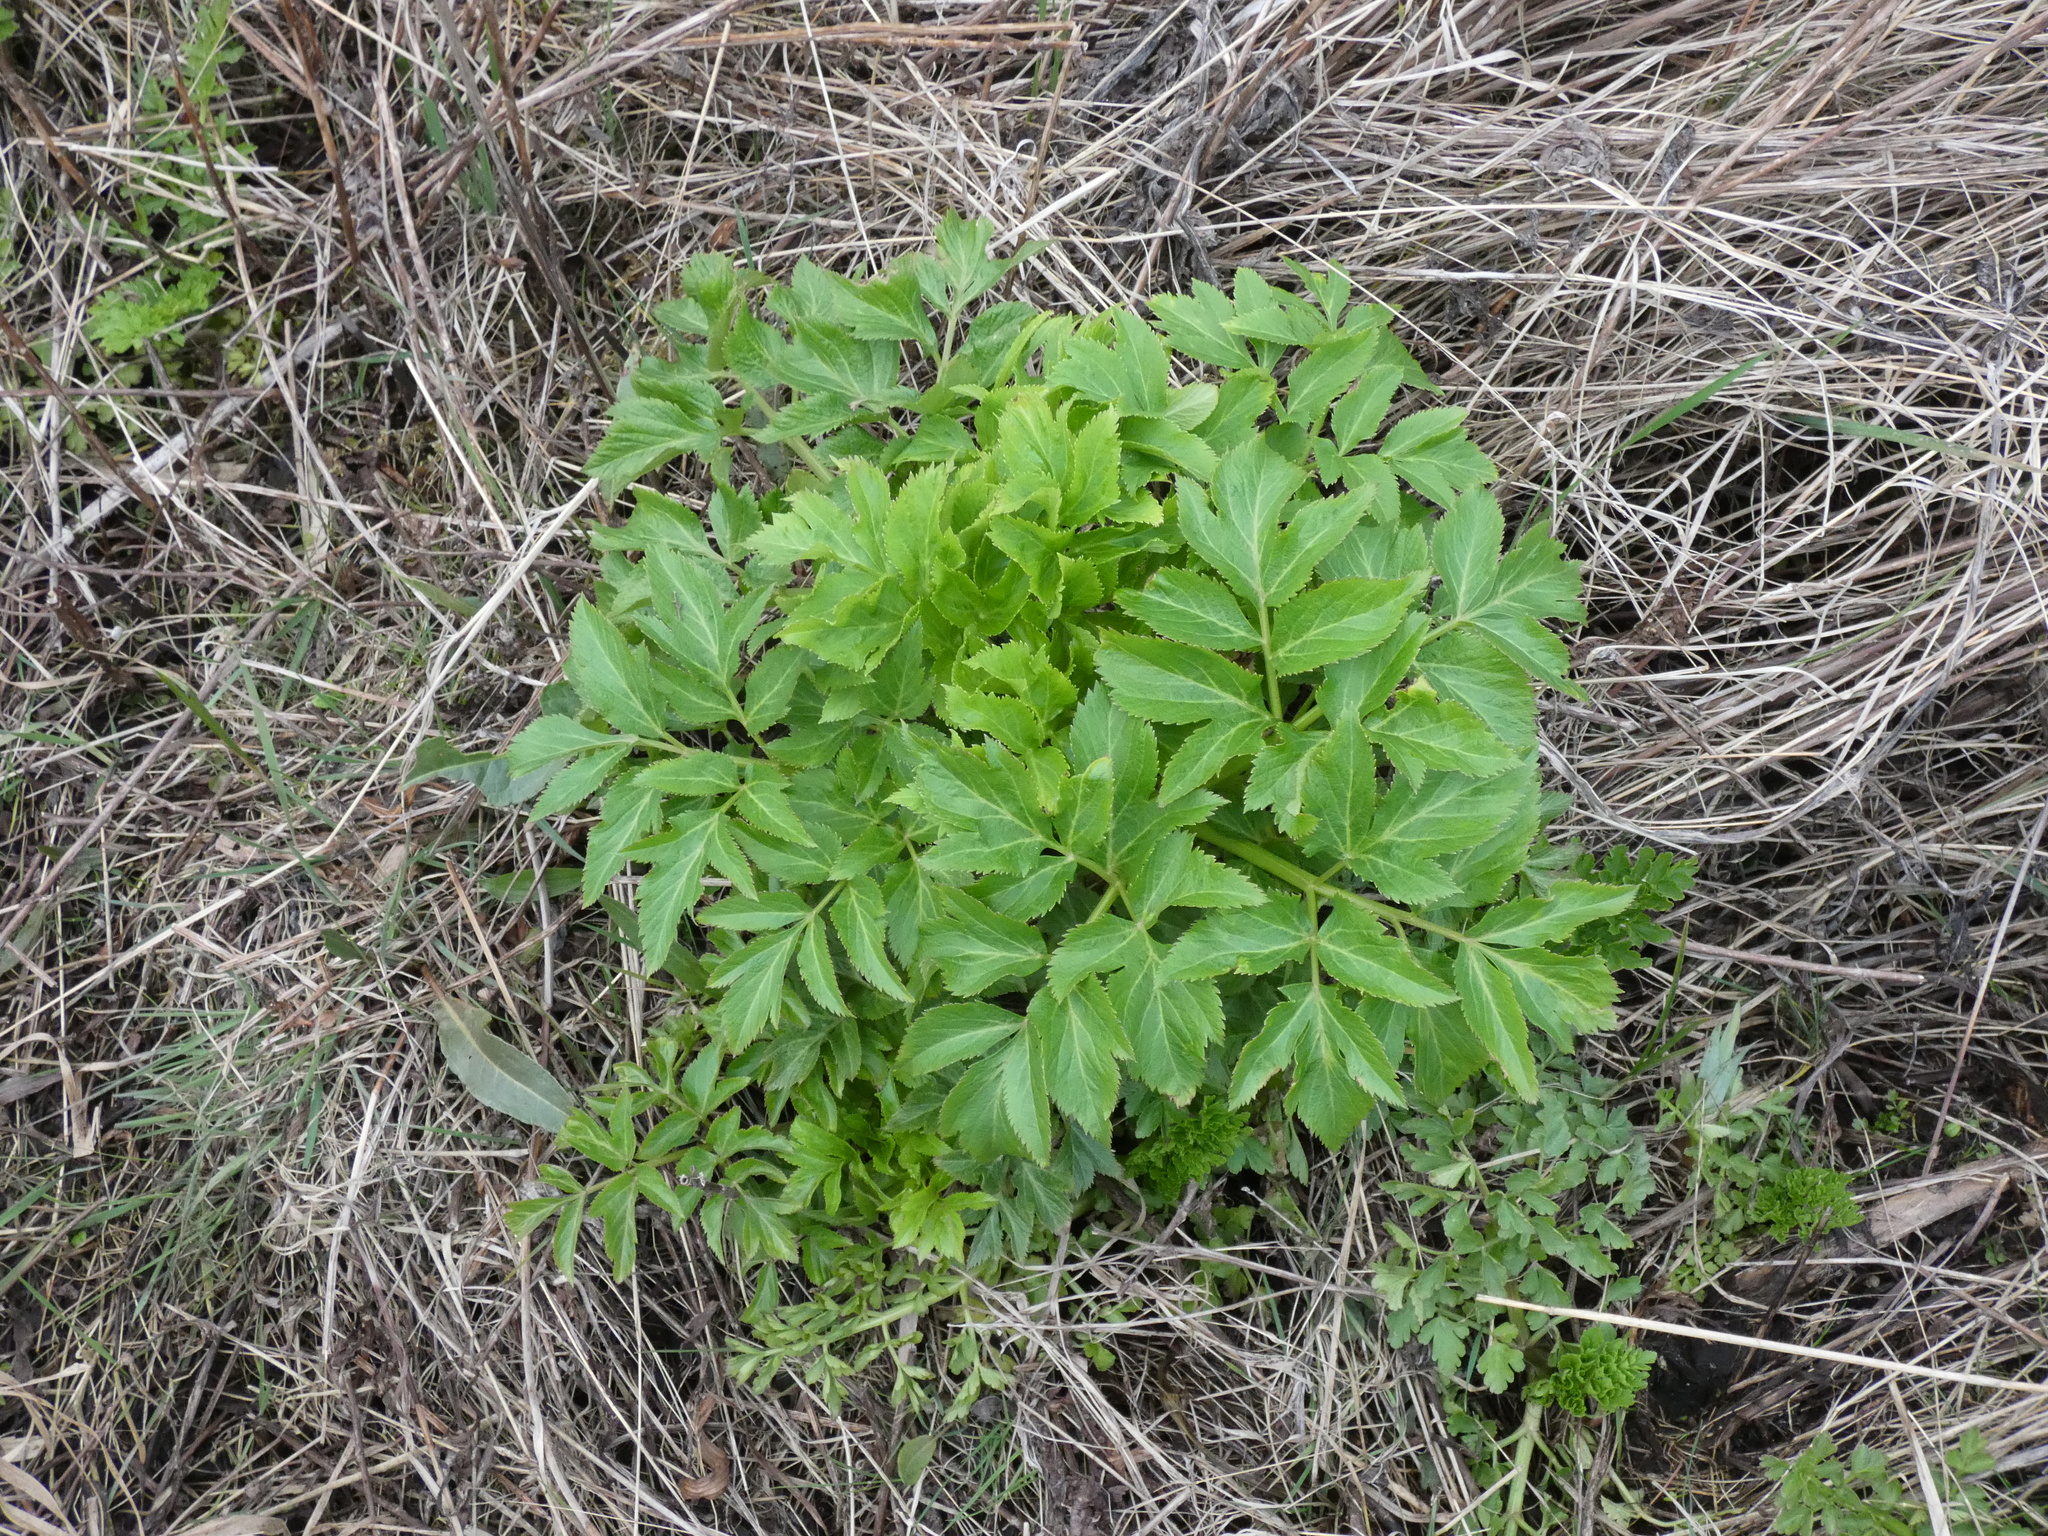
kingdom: Plantae
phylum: Tracheophyta
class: Magnoliopsida
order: Apiales
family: Apiaceae
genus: Angelica
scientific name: Angelica archangelica
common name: Garden angelica
